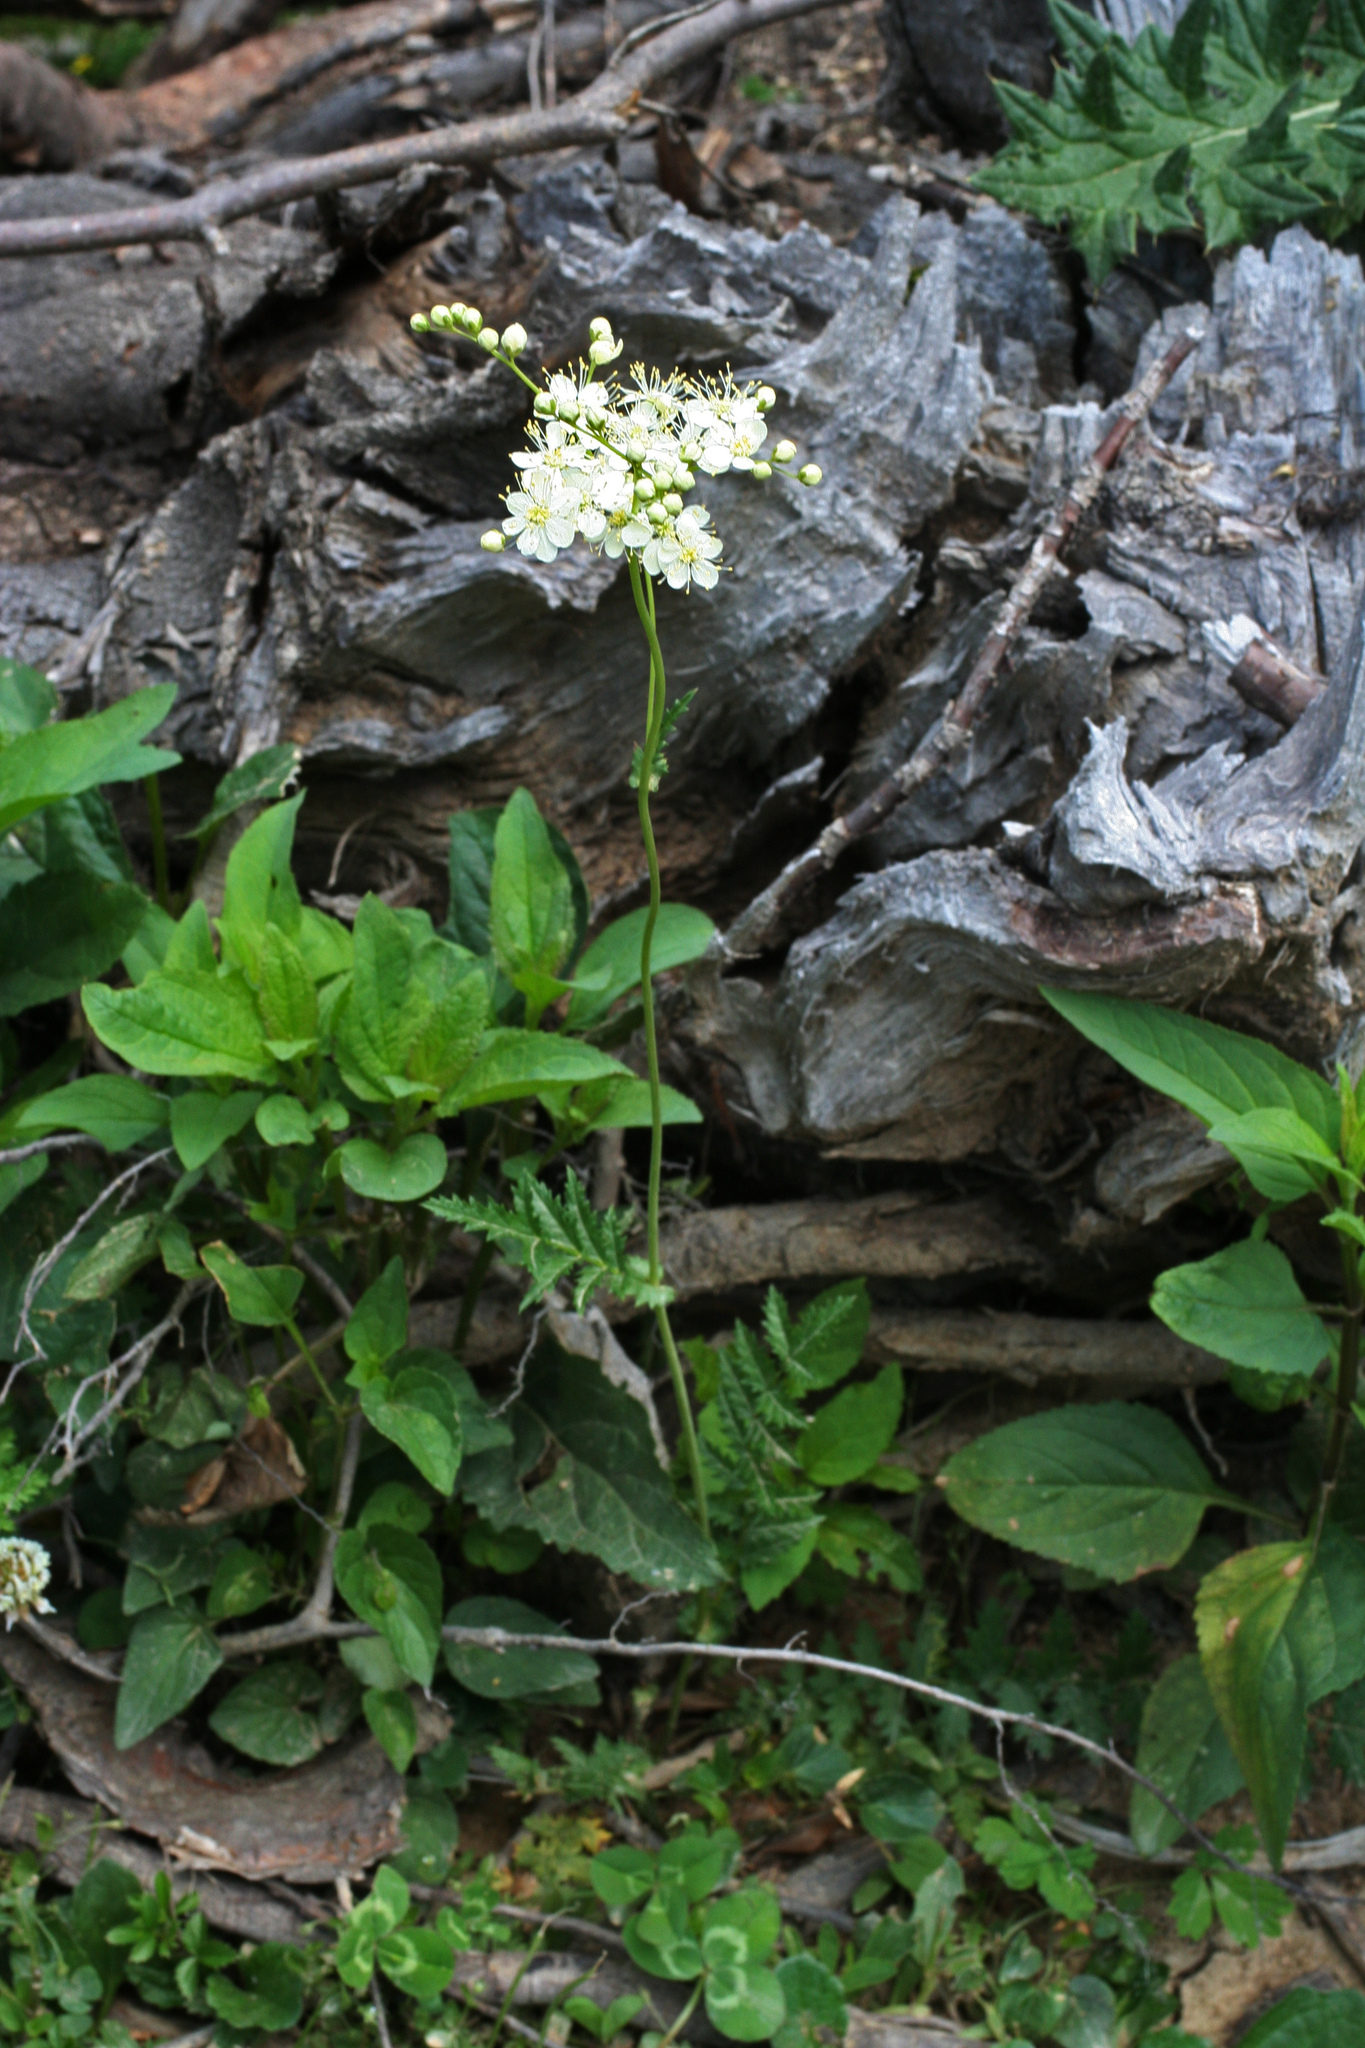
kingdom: Plantae
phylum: Tracheophyta
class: Magnoliopsida
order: Rosales
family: Rosaceae
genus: Filipendula
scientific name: Filipendula vulgaris
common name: Dropwort
